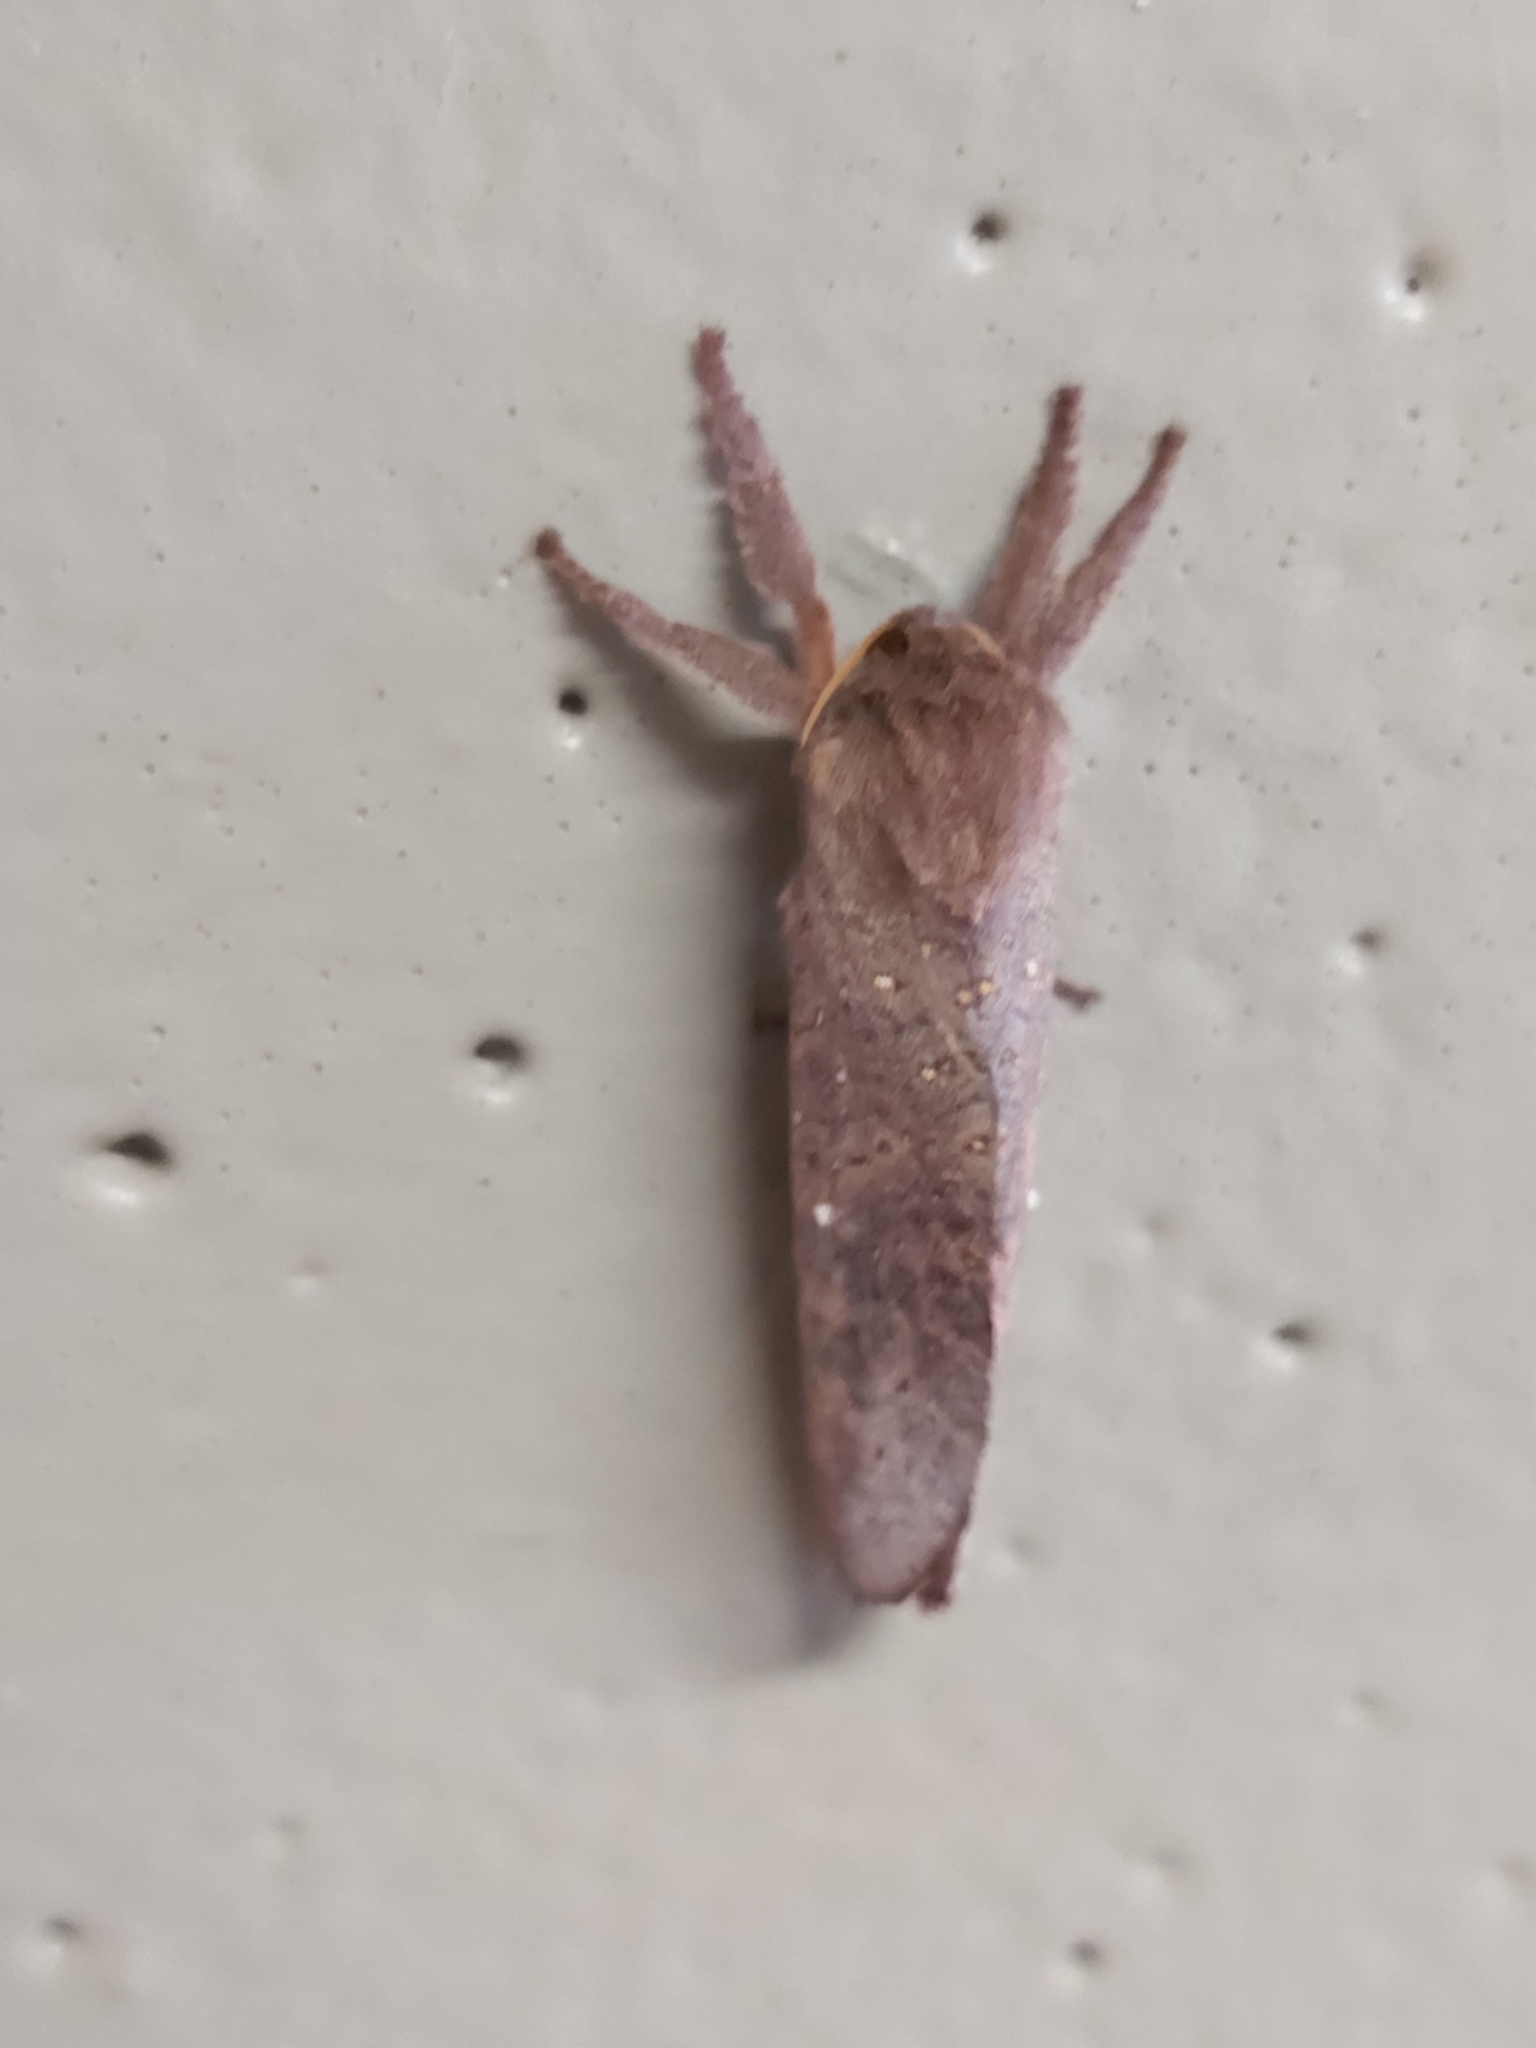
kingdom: Animalia
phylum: Arthropoda
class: Insecta
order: Lepidoptera
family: Hepialidae
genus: Elhamma
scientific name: Elhamma australasiae
